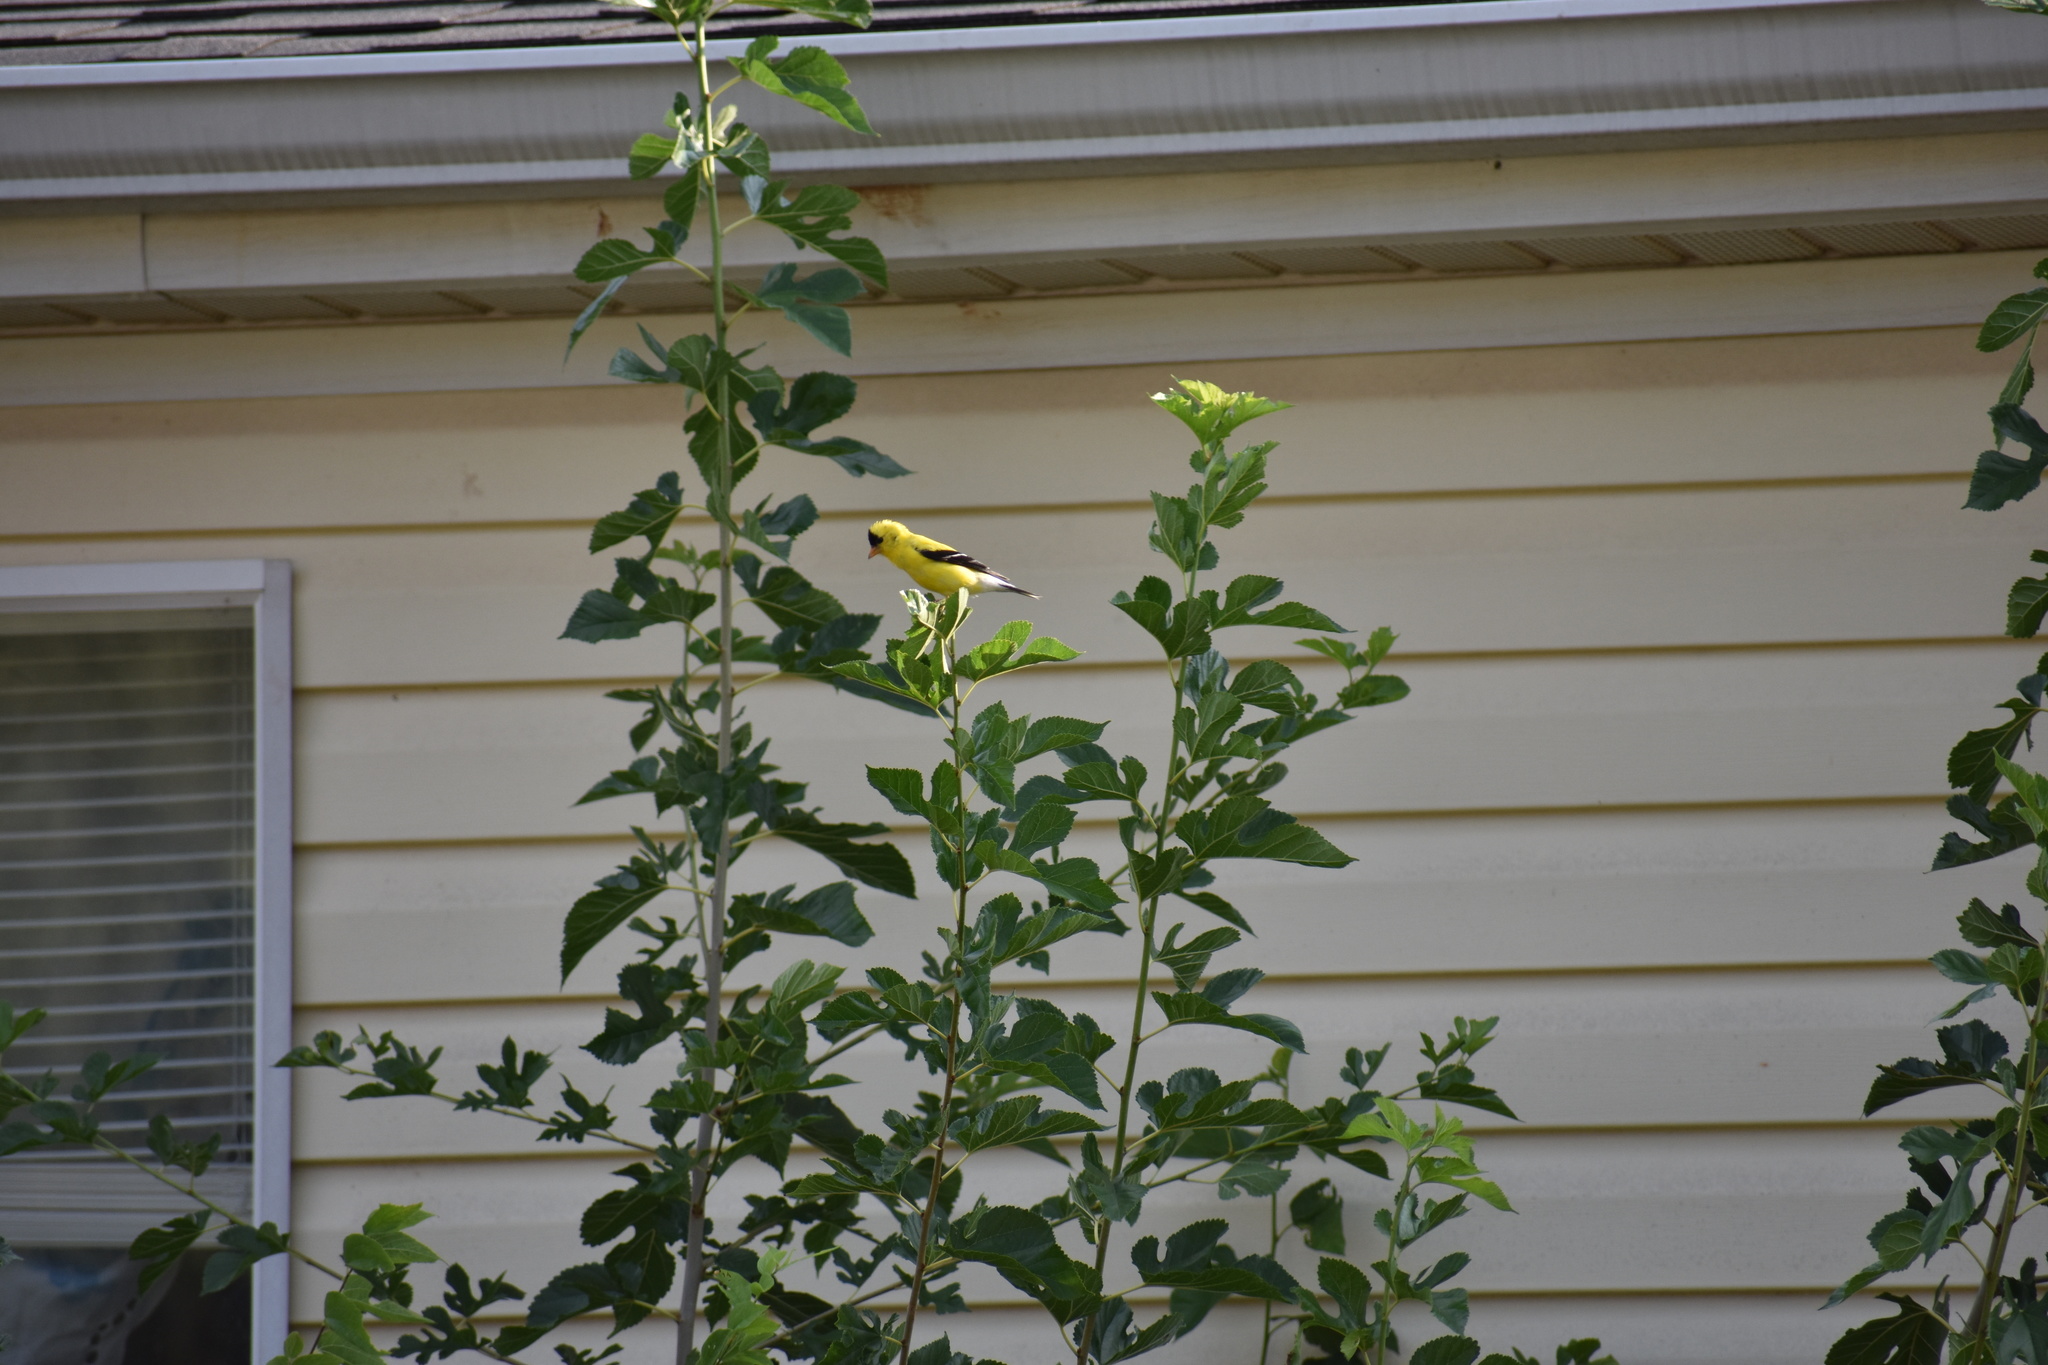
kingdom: Animalia
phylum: Chordata
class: Aves
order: Passeriformes
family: Fringillidae
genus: Spinus
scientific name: Spinus tristis
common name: American goldfinch
